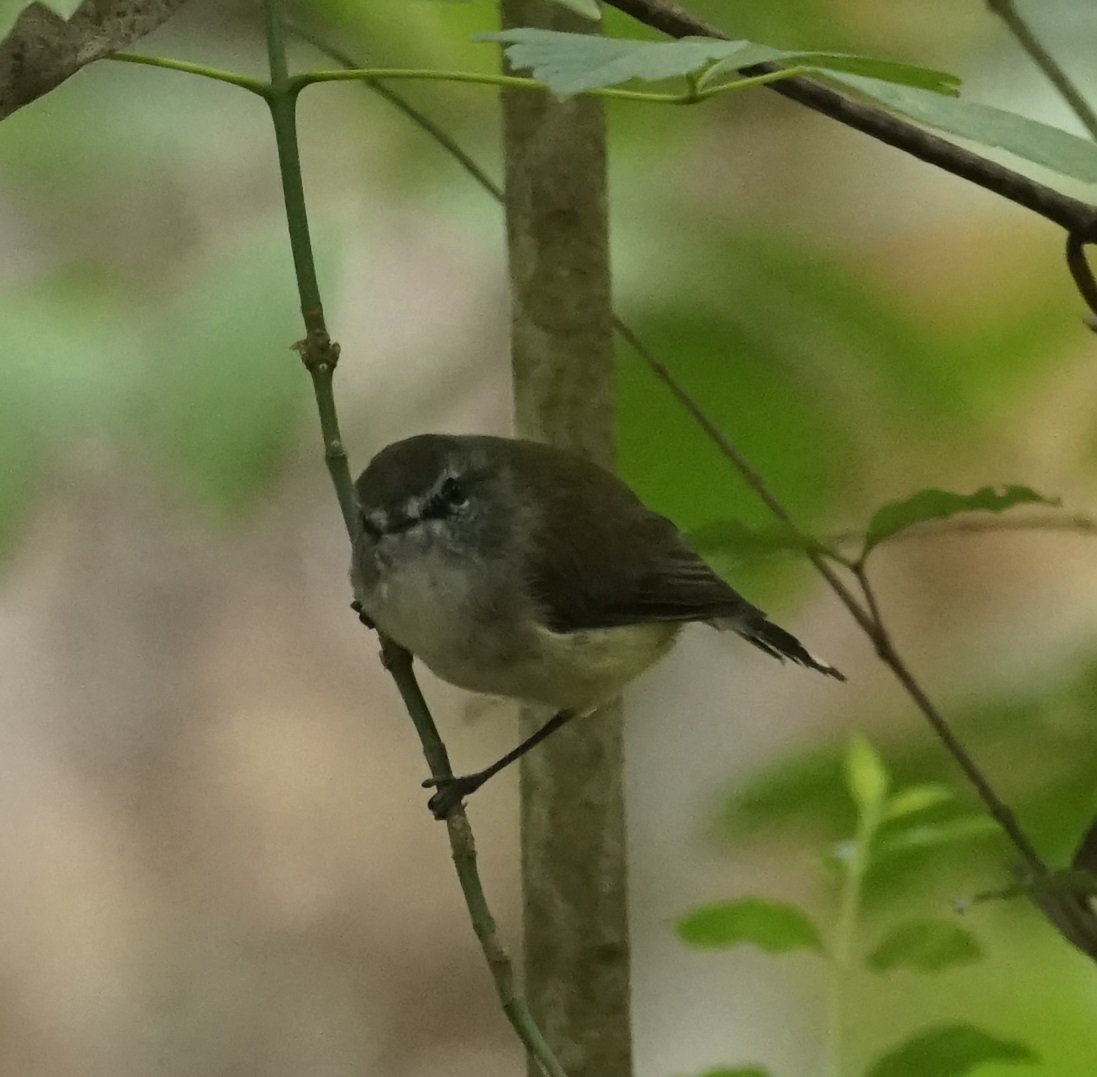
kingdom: Animalia
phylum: Chordata
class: Aves
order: Passeriformes
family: Acanthizidae
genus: Gerygone
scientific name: Gerygone mouki
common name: Brown gerygone
